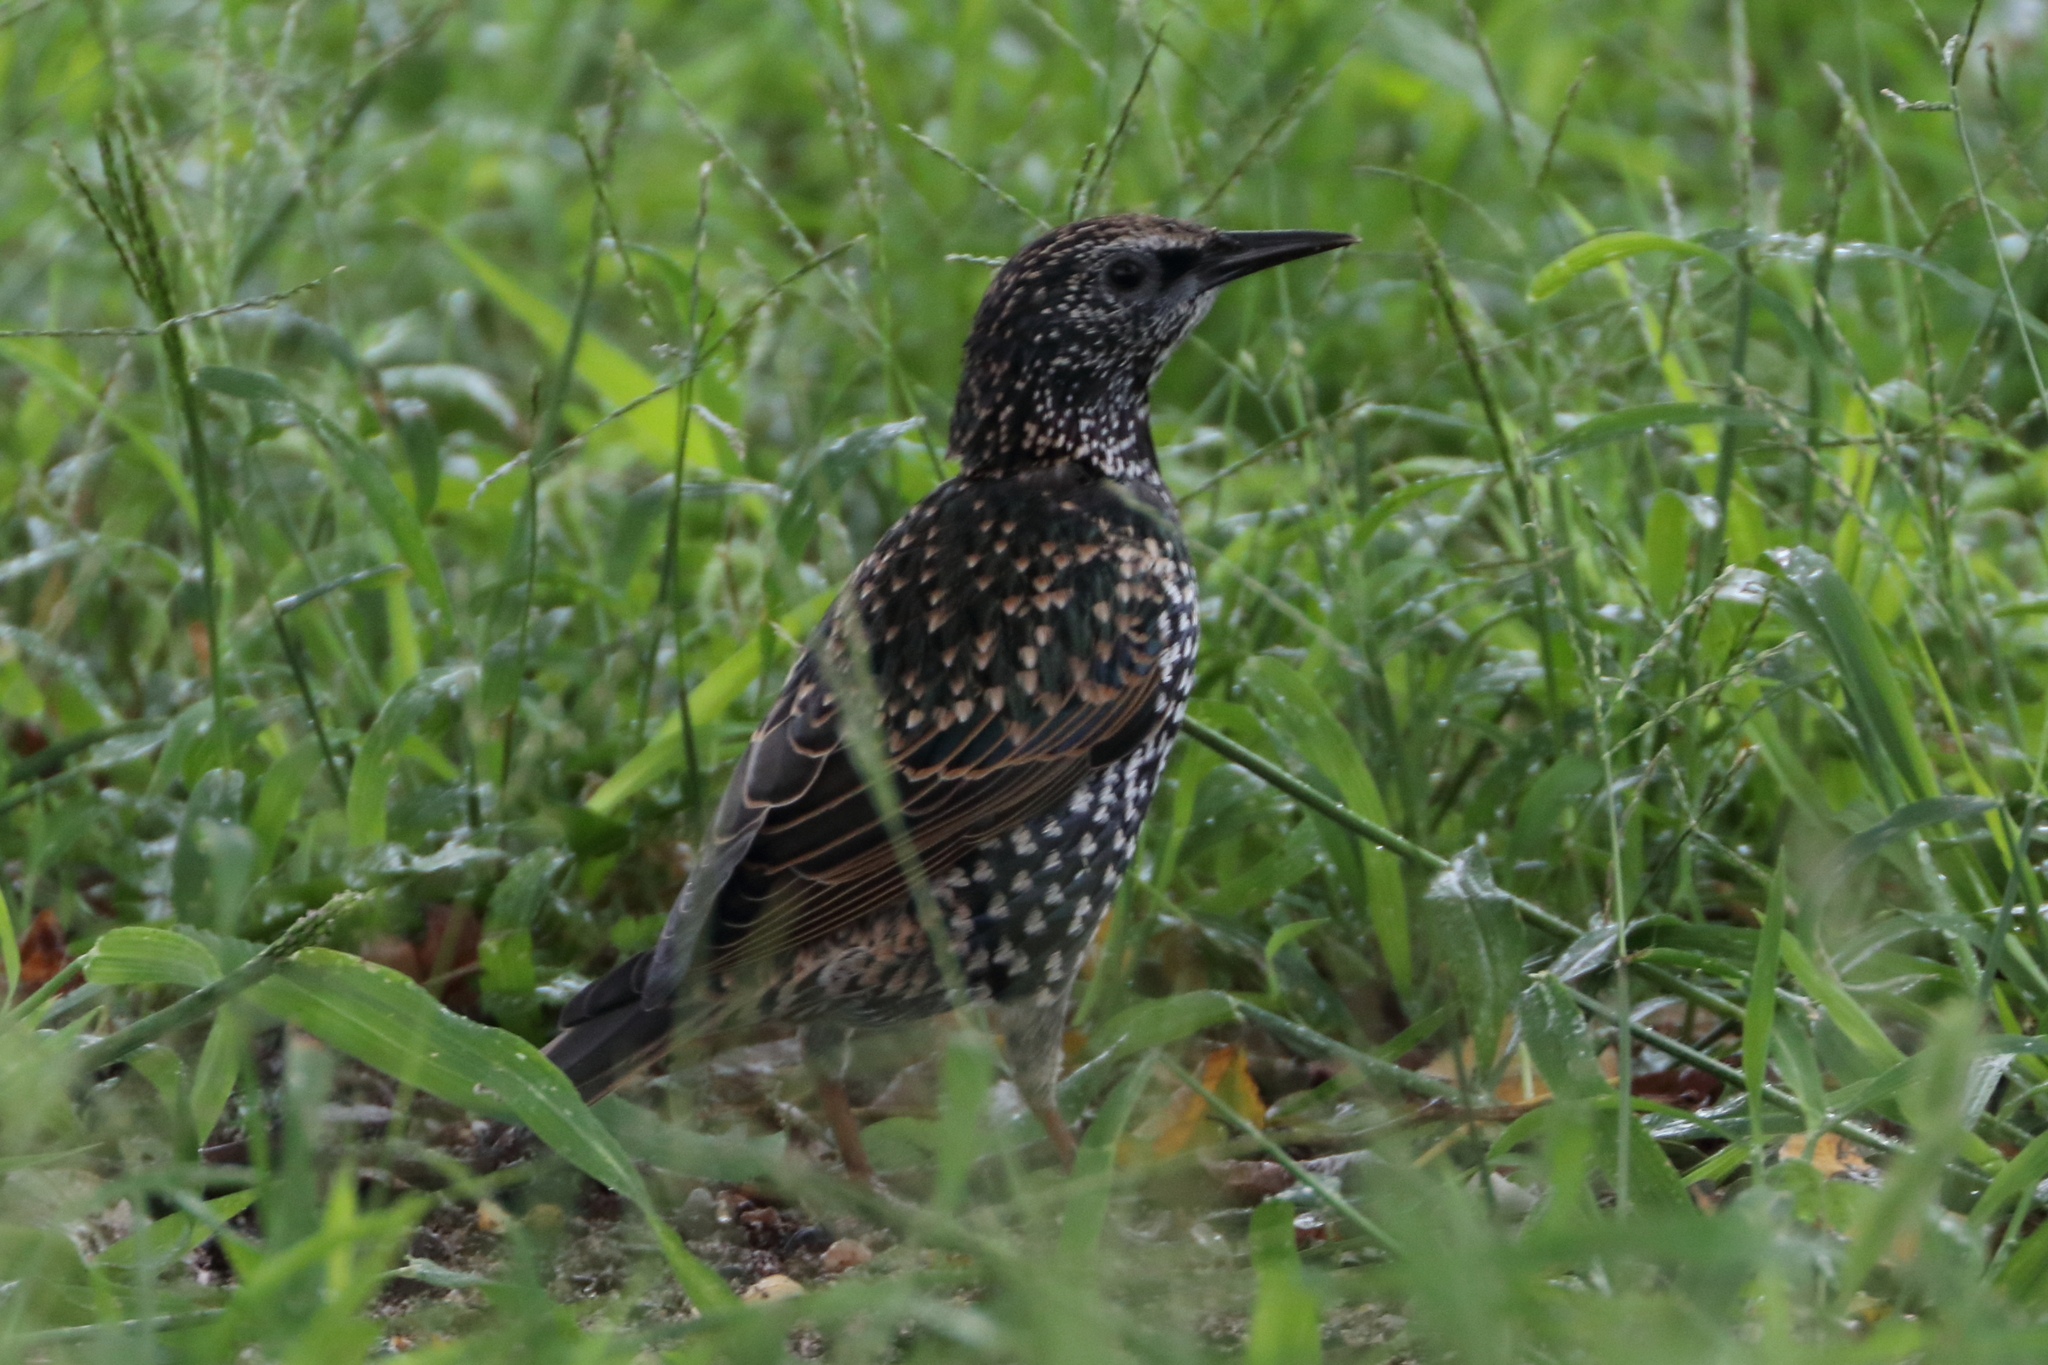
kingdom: Animalia
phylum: Chordata
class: Aves
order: Passeriformes
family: Sturnidae
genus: Sturnus
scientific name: Sturnus vulgaris
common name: Common starling
